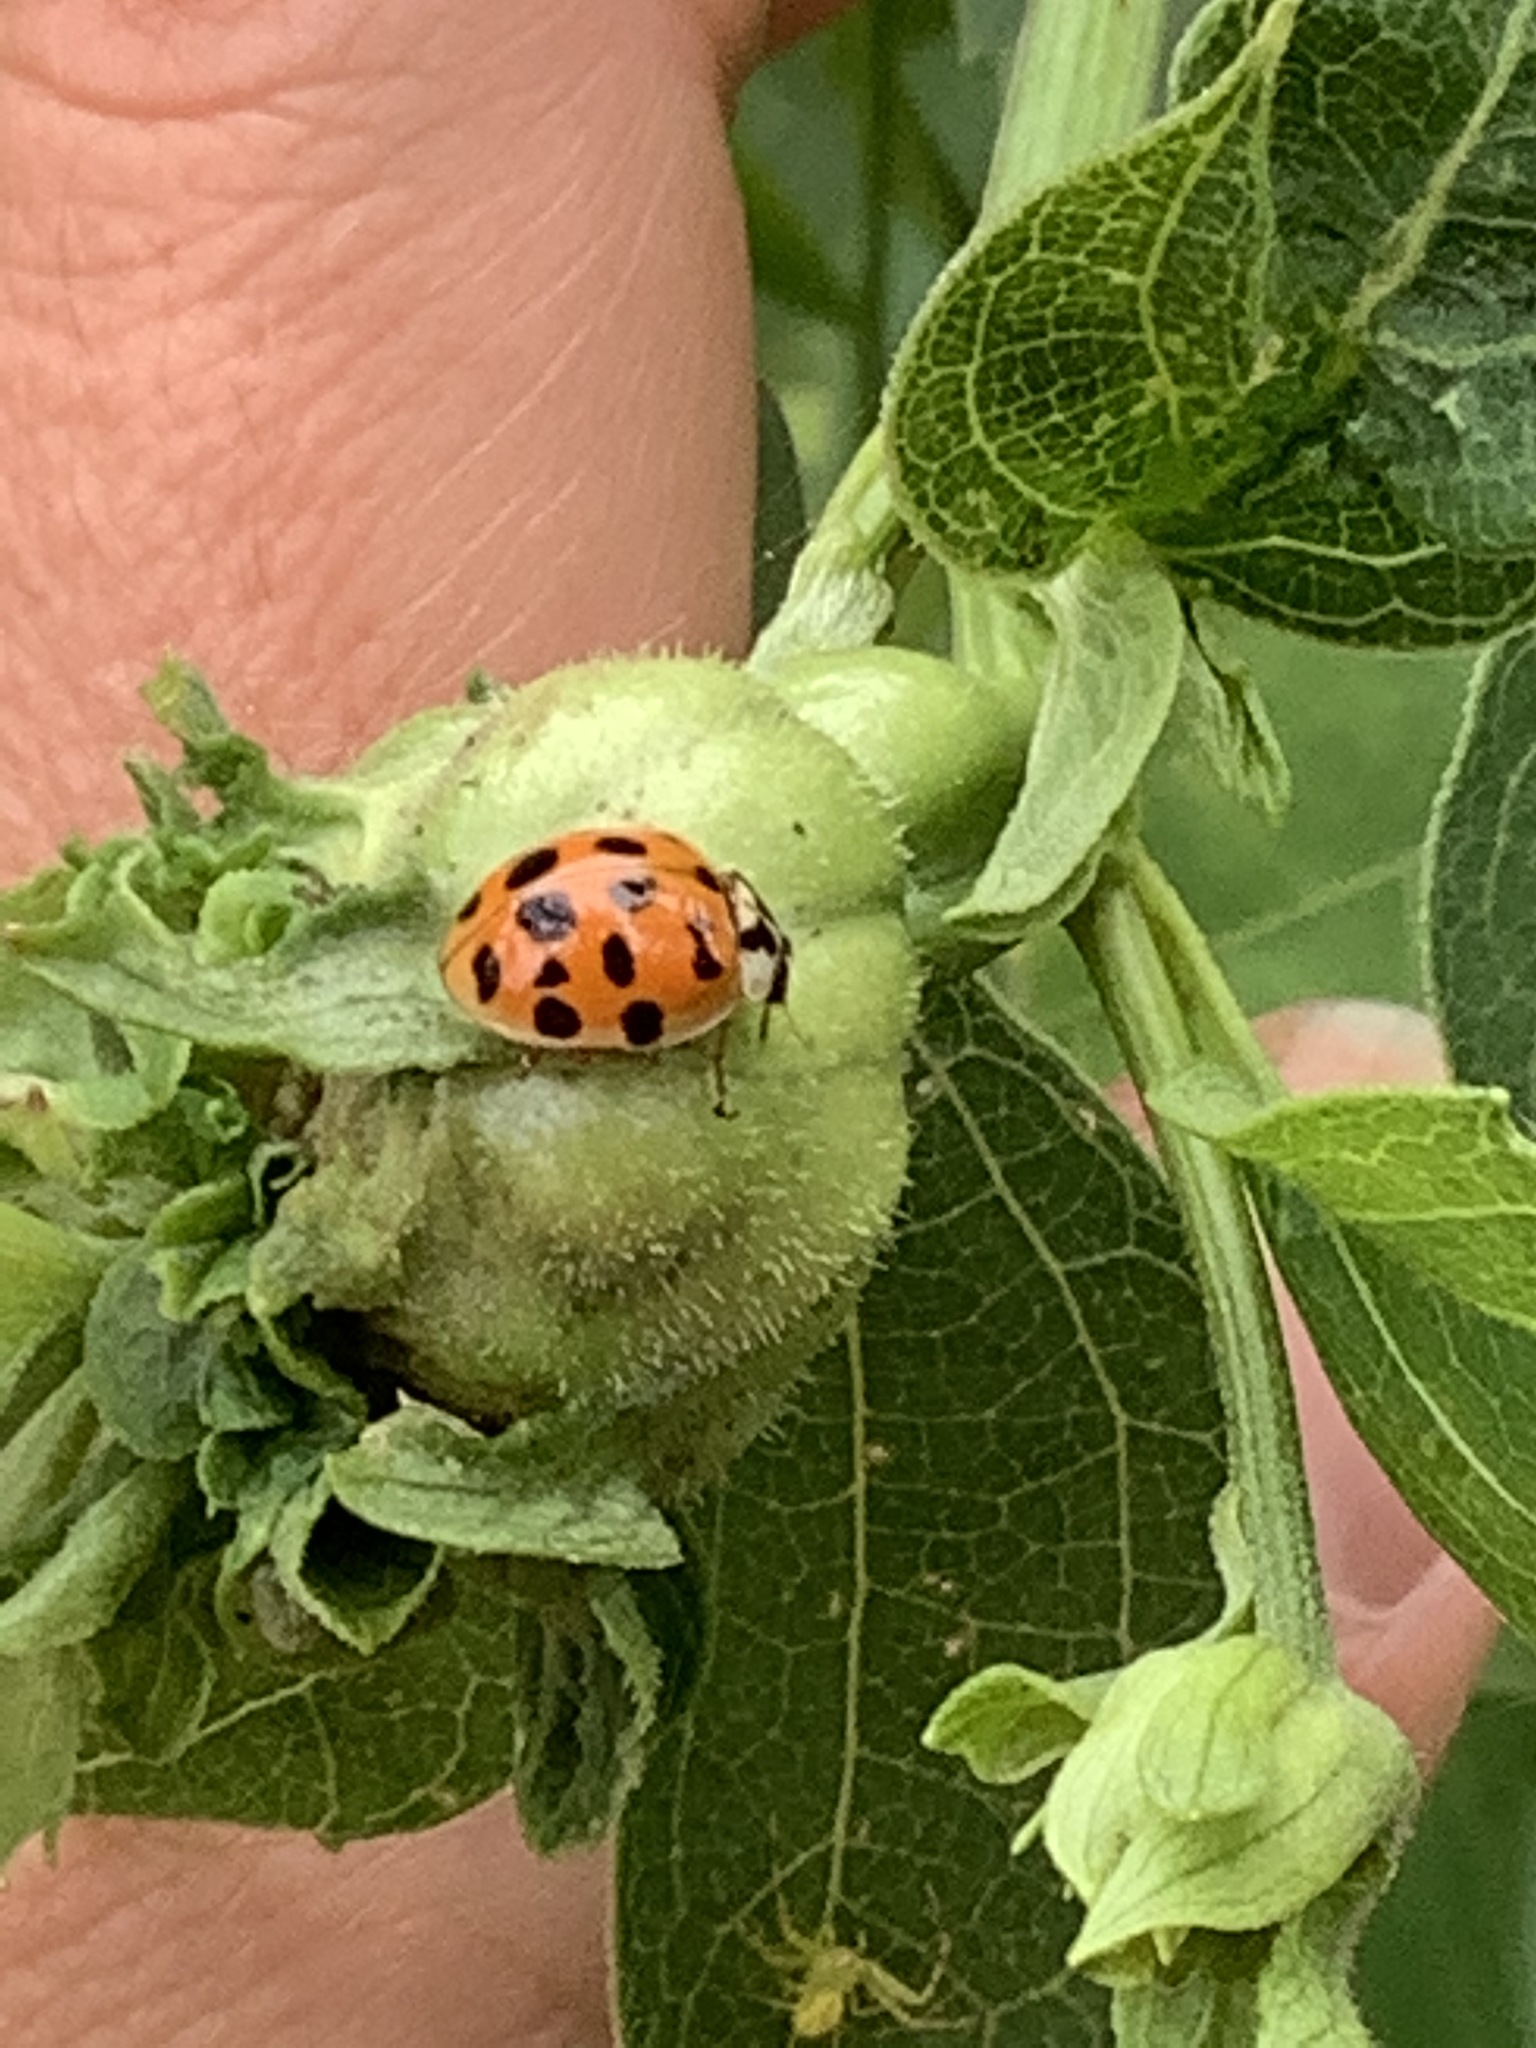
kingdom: Animalia
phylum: Arthropoda
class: Insecta
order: Coleoptera
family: Coccinellidae
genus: Harmonia
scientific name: Harmonia axyridis
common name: Harlequin ladybird
